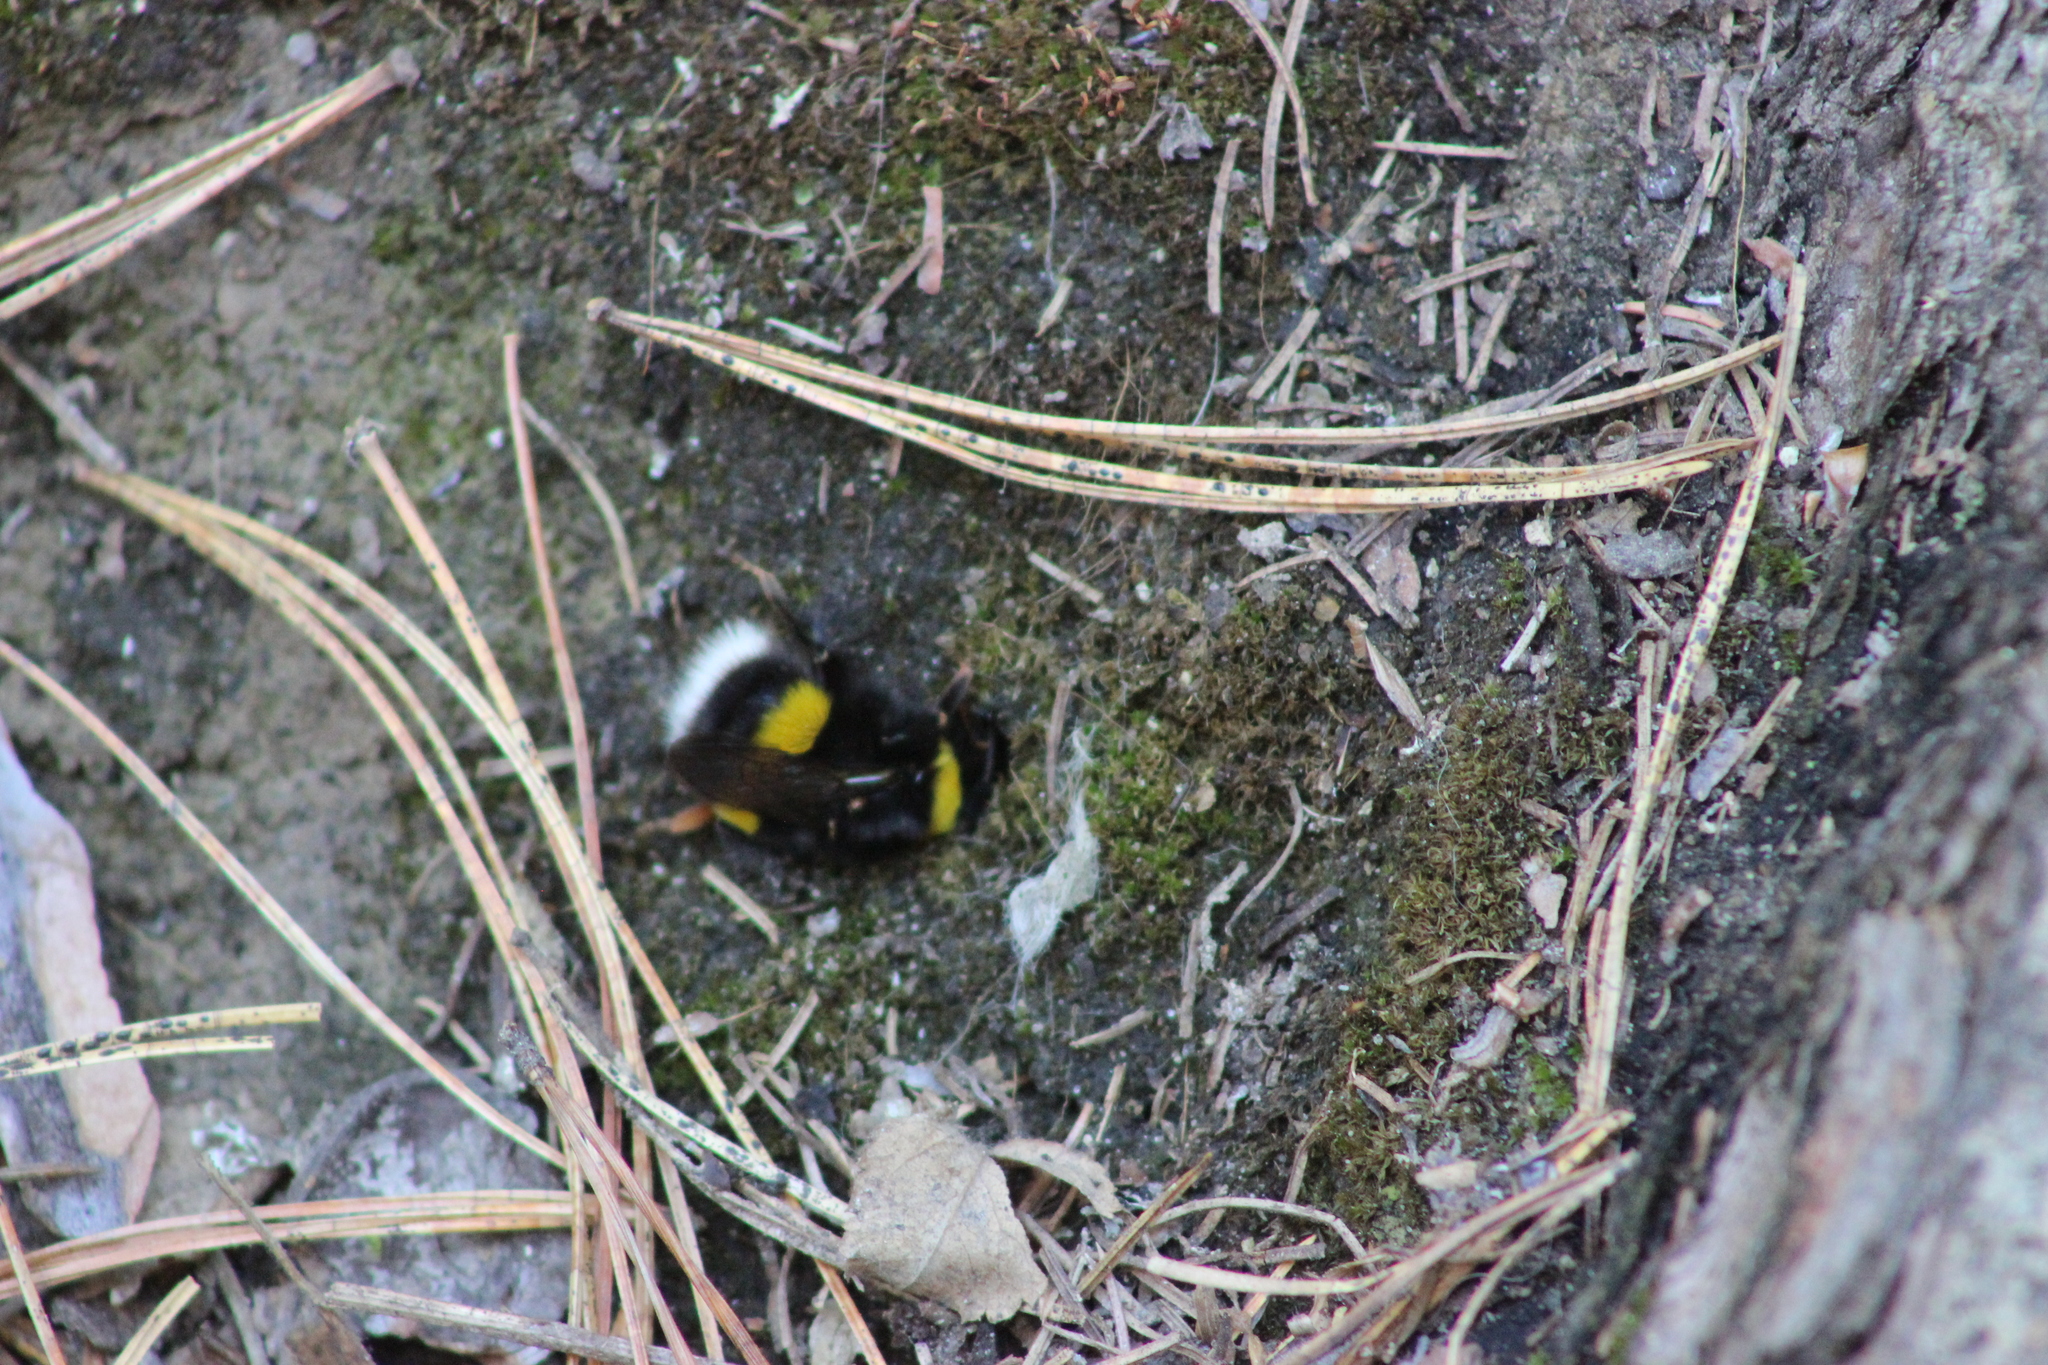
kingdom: Animalia
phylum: Arthropoda
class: Insecta
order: Hymenoptera
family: Apidae
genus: Bombus
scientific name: Bombus lucorum
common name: White-tailed bumblebee
